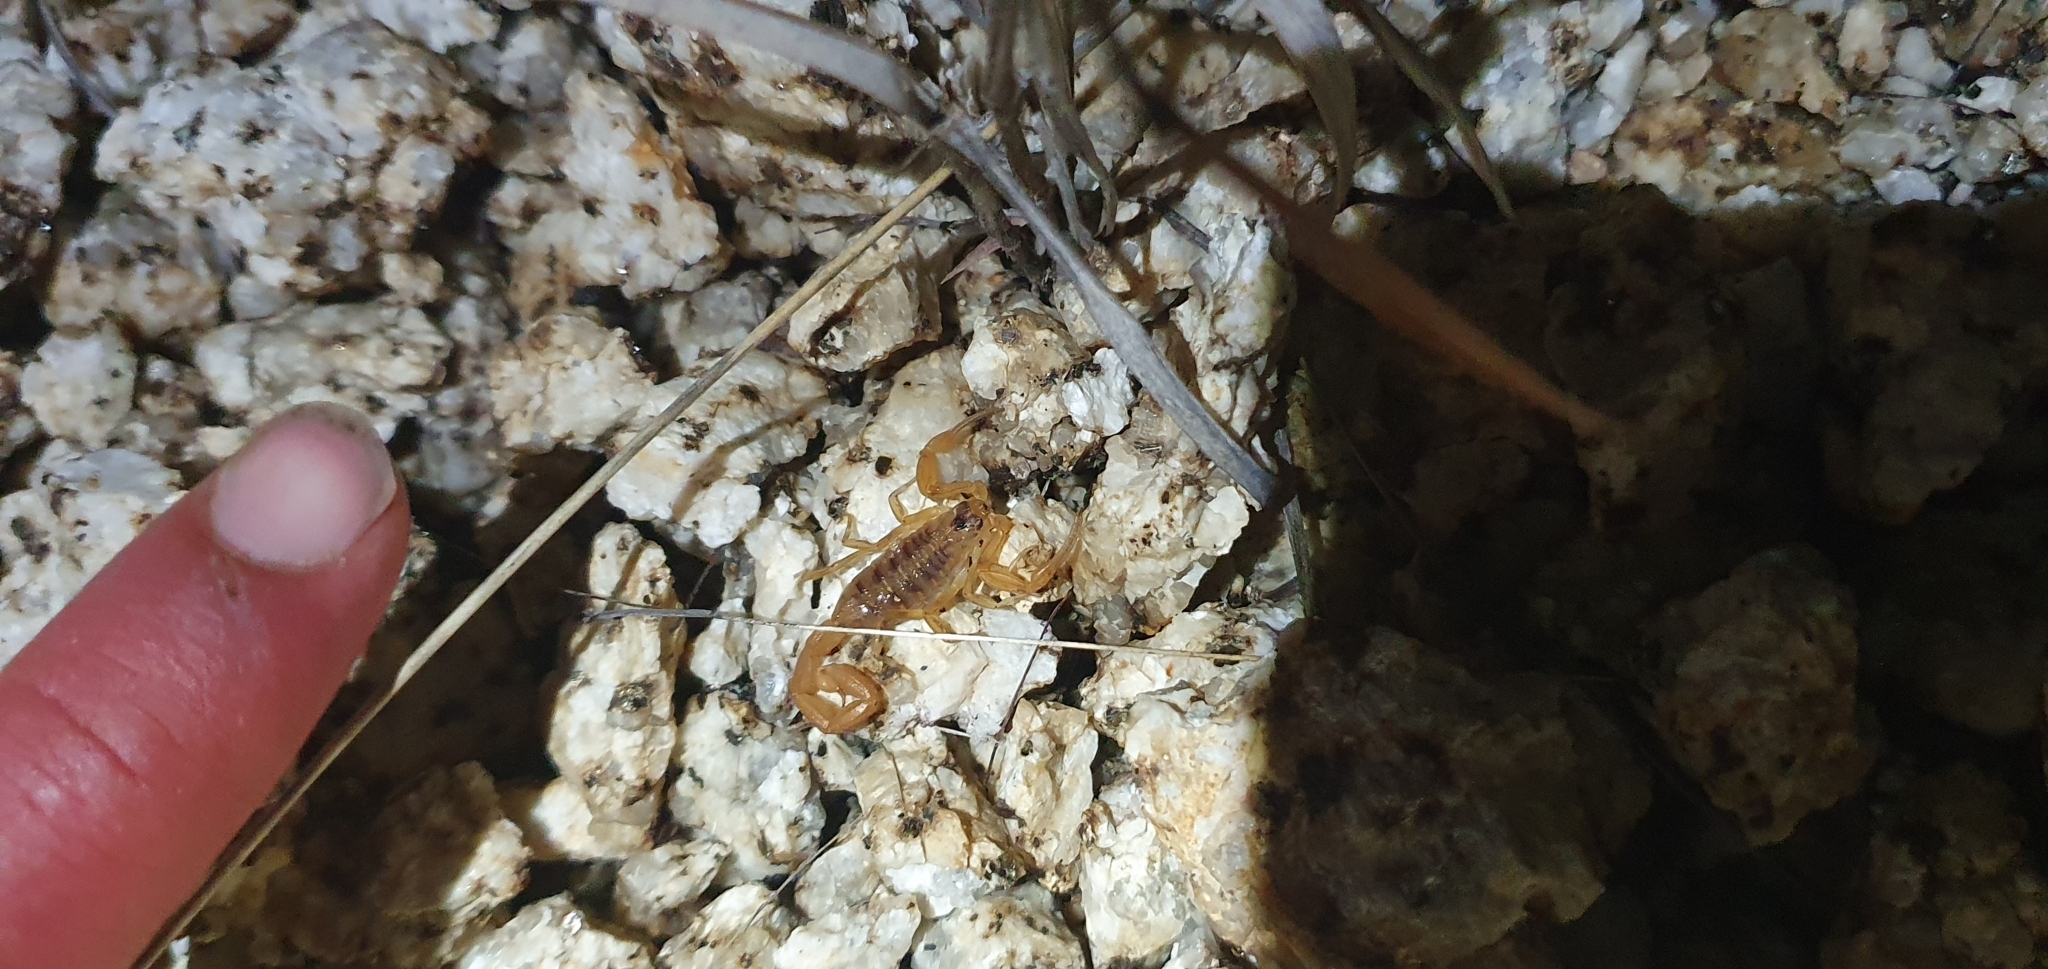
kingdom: Animalia
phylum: Arthropoda
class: Arachnida
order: Scorpiones
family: Buthidae
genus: Centruroides
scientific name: Centruroides exilicauda
